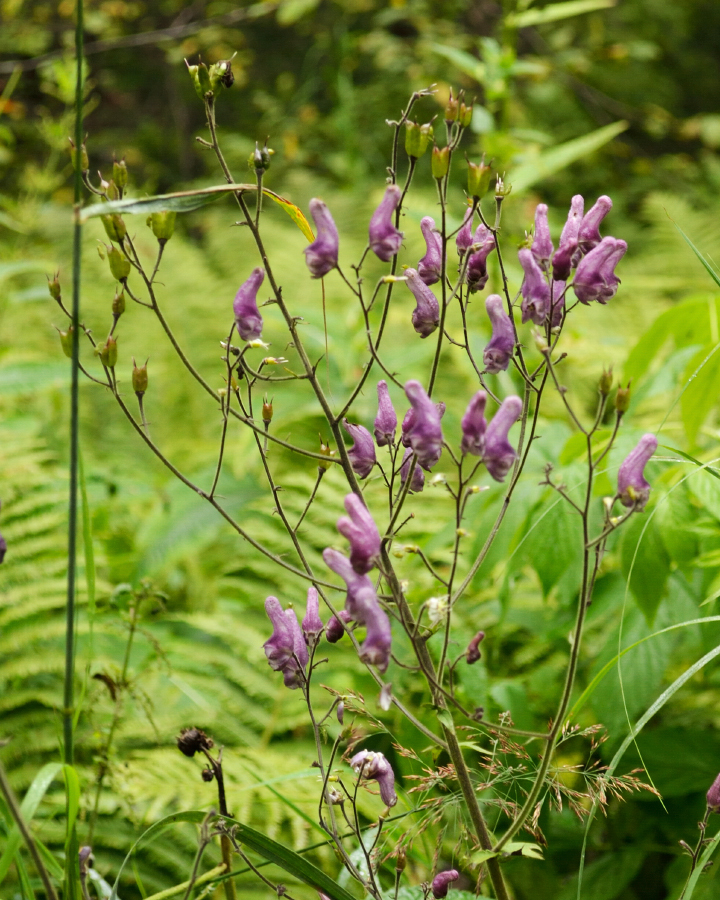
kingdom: Plantae
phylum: Tracheophyta
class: Magnoliopsida
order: Ranunculales
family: Ranunculaceae
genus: Aconitum
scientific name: Aconitum septentrionale
